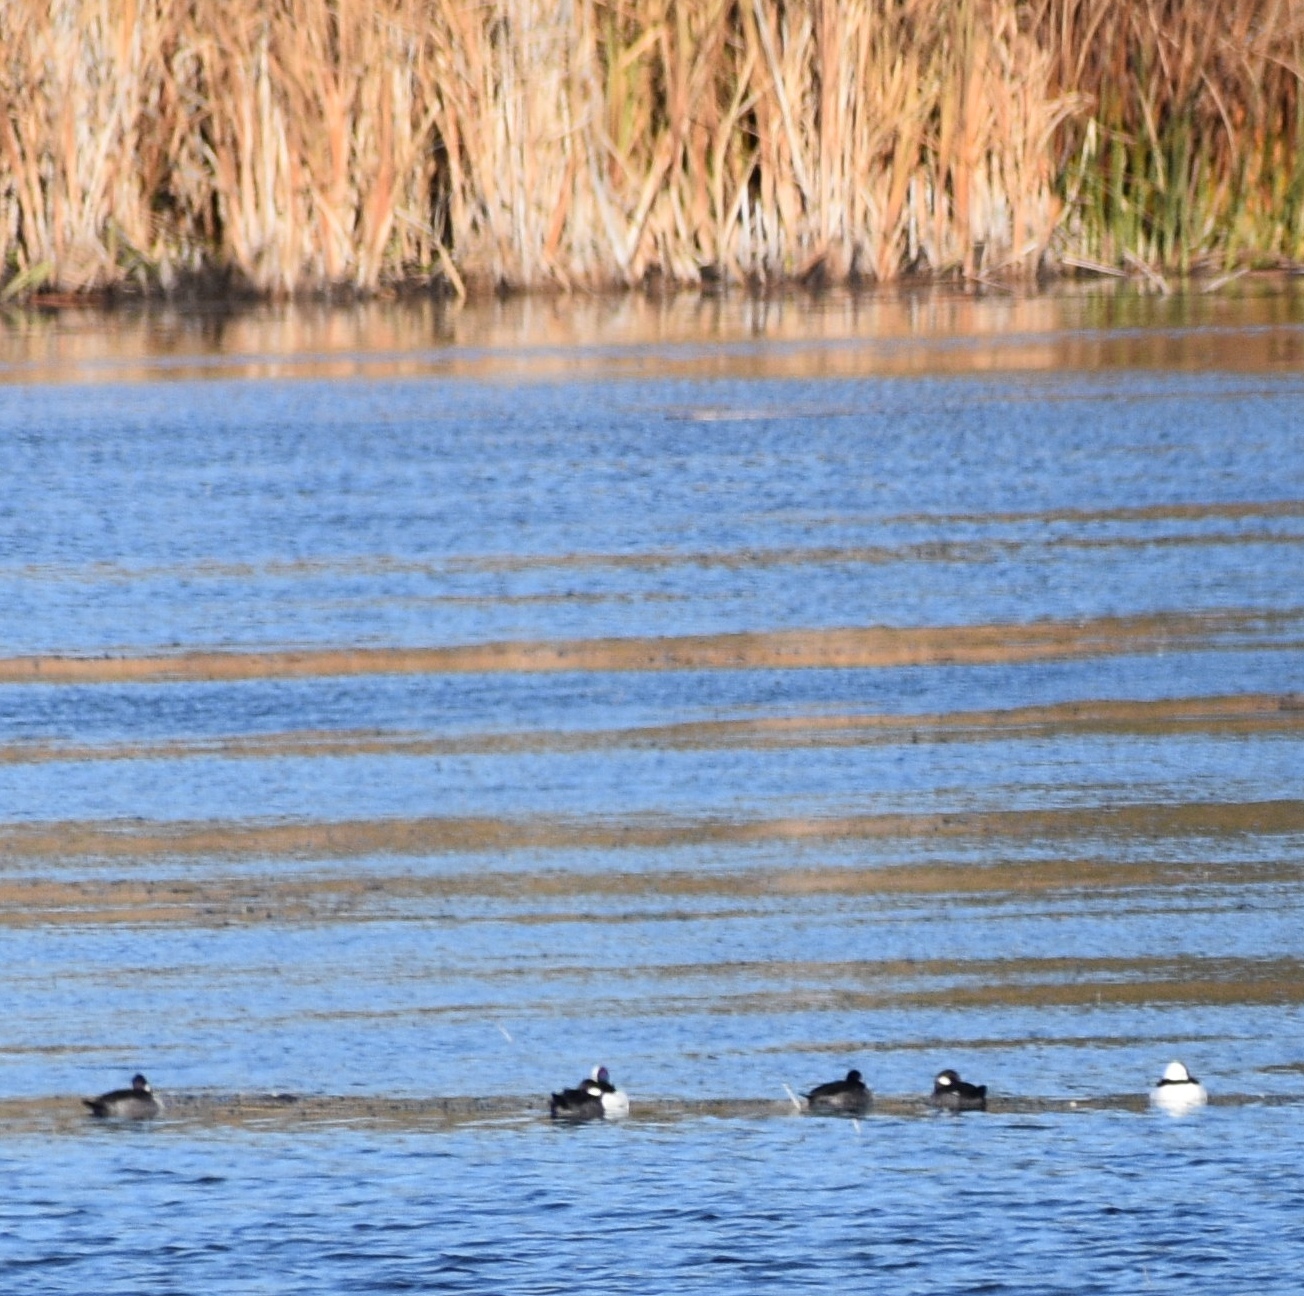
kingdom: Animalia
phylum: Chordata
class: Aves
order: Anseriformes
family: Anatidae
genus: Bucephala
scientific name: Bucephala albeola
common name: Bufflehead
